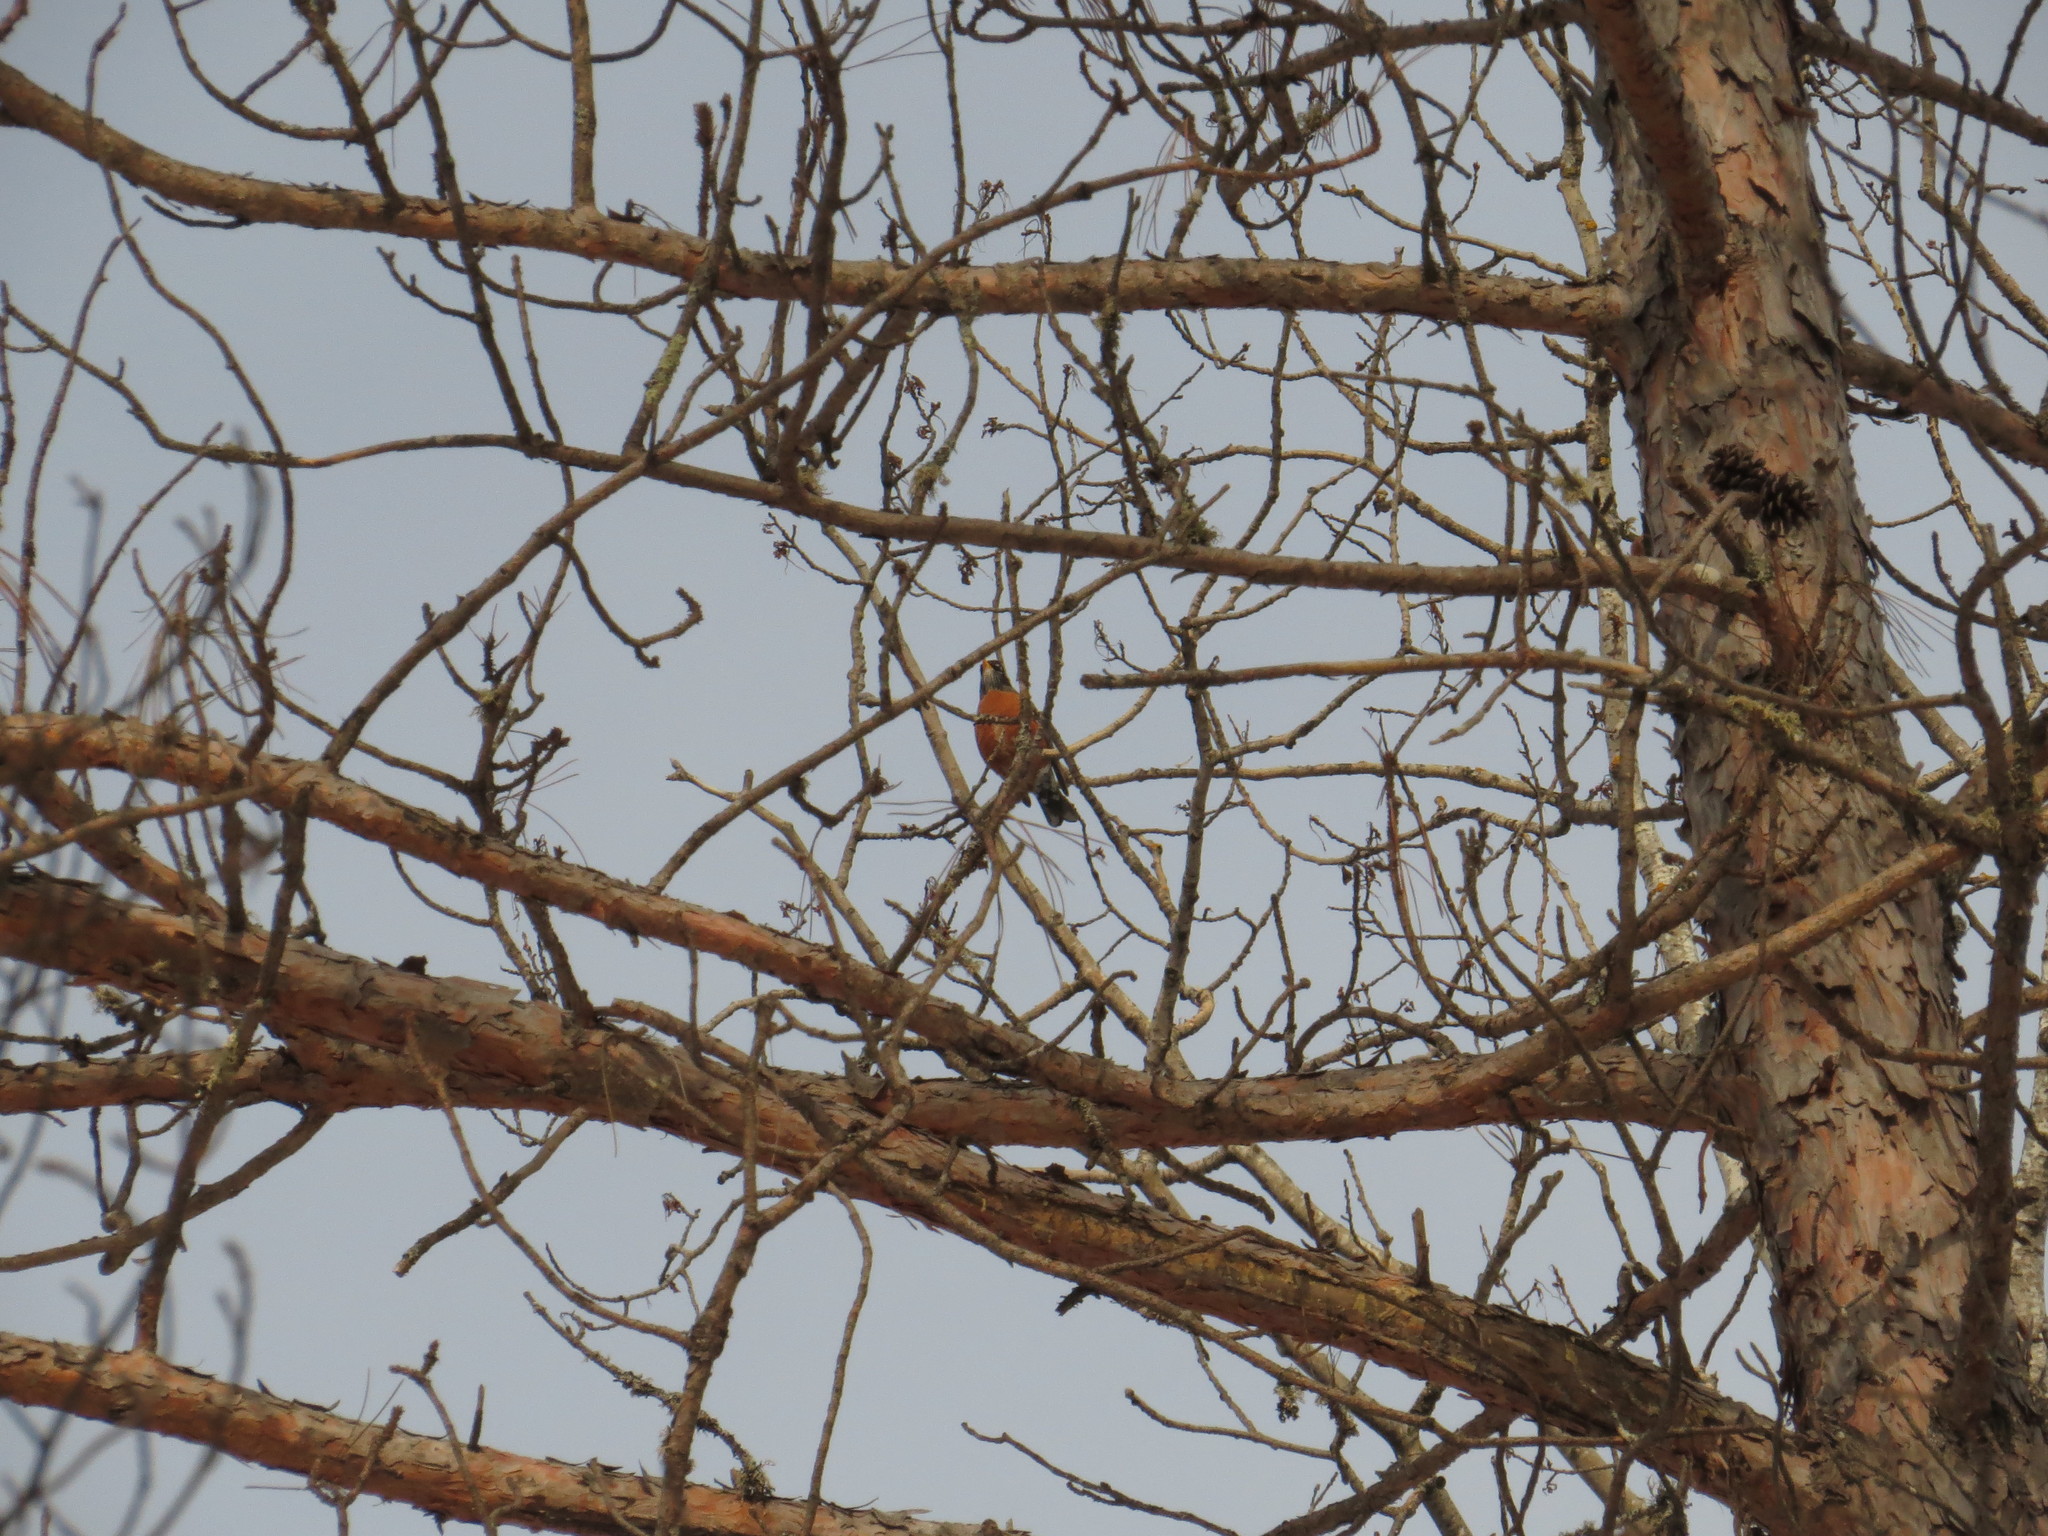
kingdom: Animalia
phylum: Chordata
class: Aves
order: Passeriformes
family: Turdidae
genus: Turdus
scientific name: Turdus migratorius
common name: American robin
